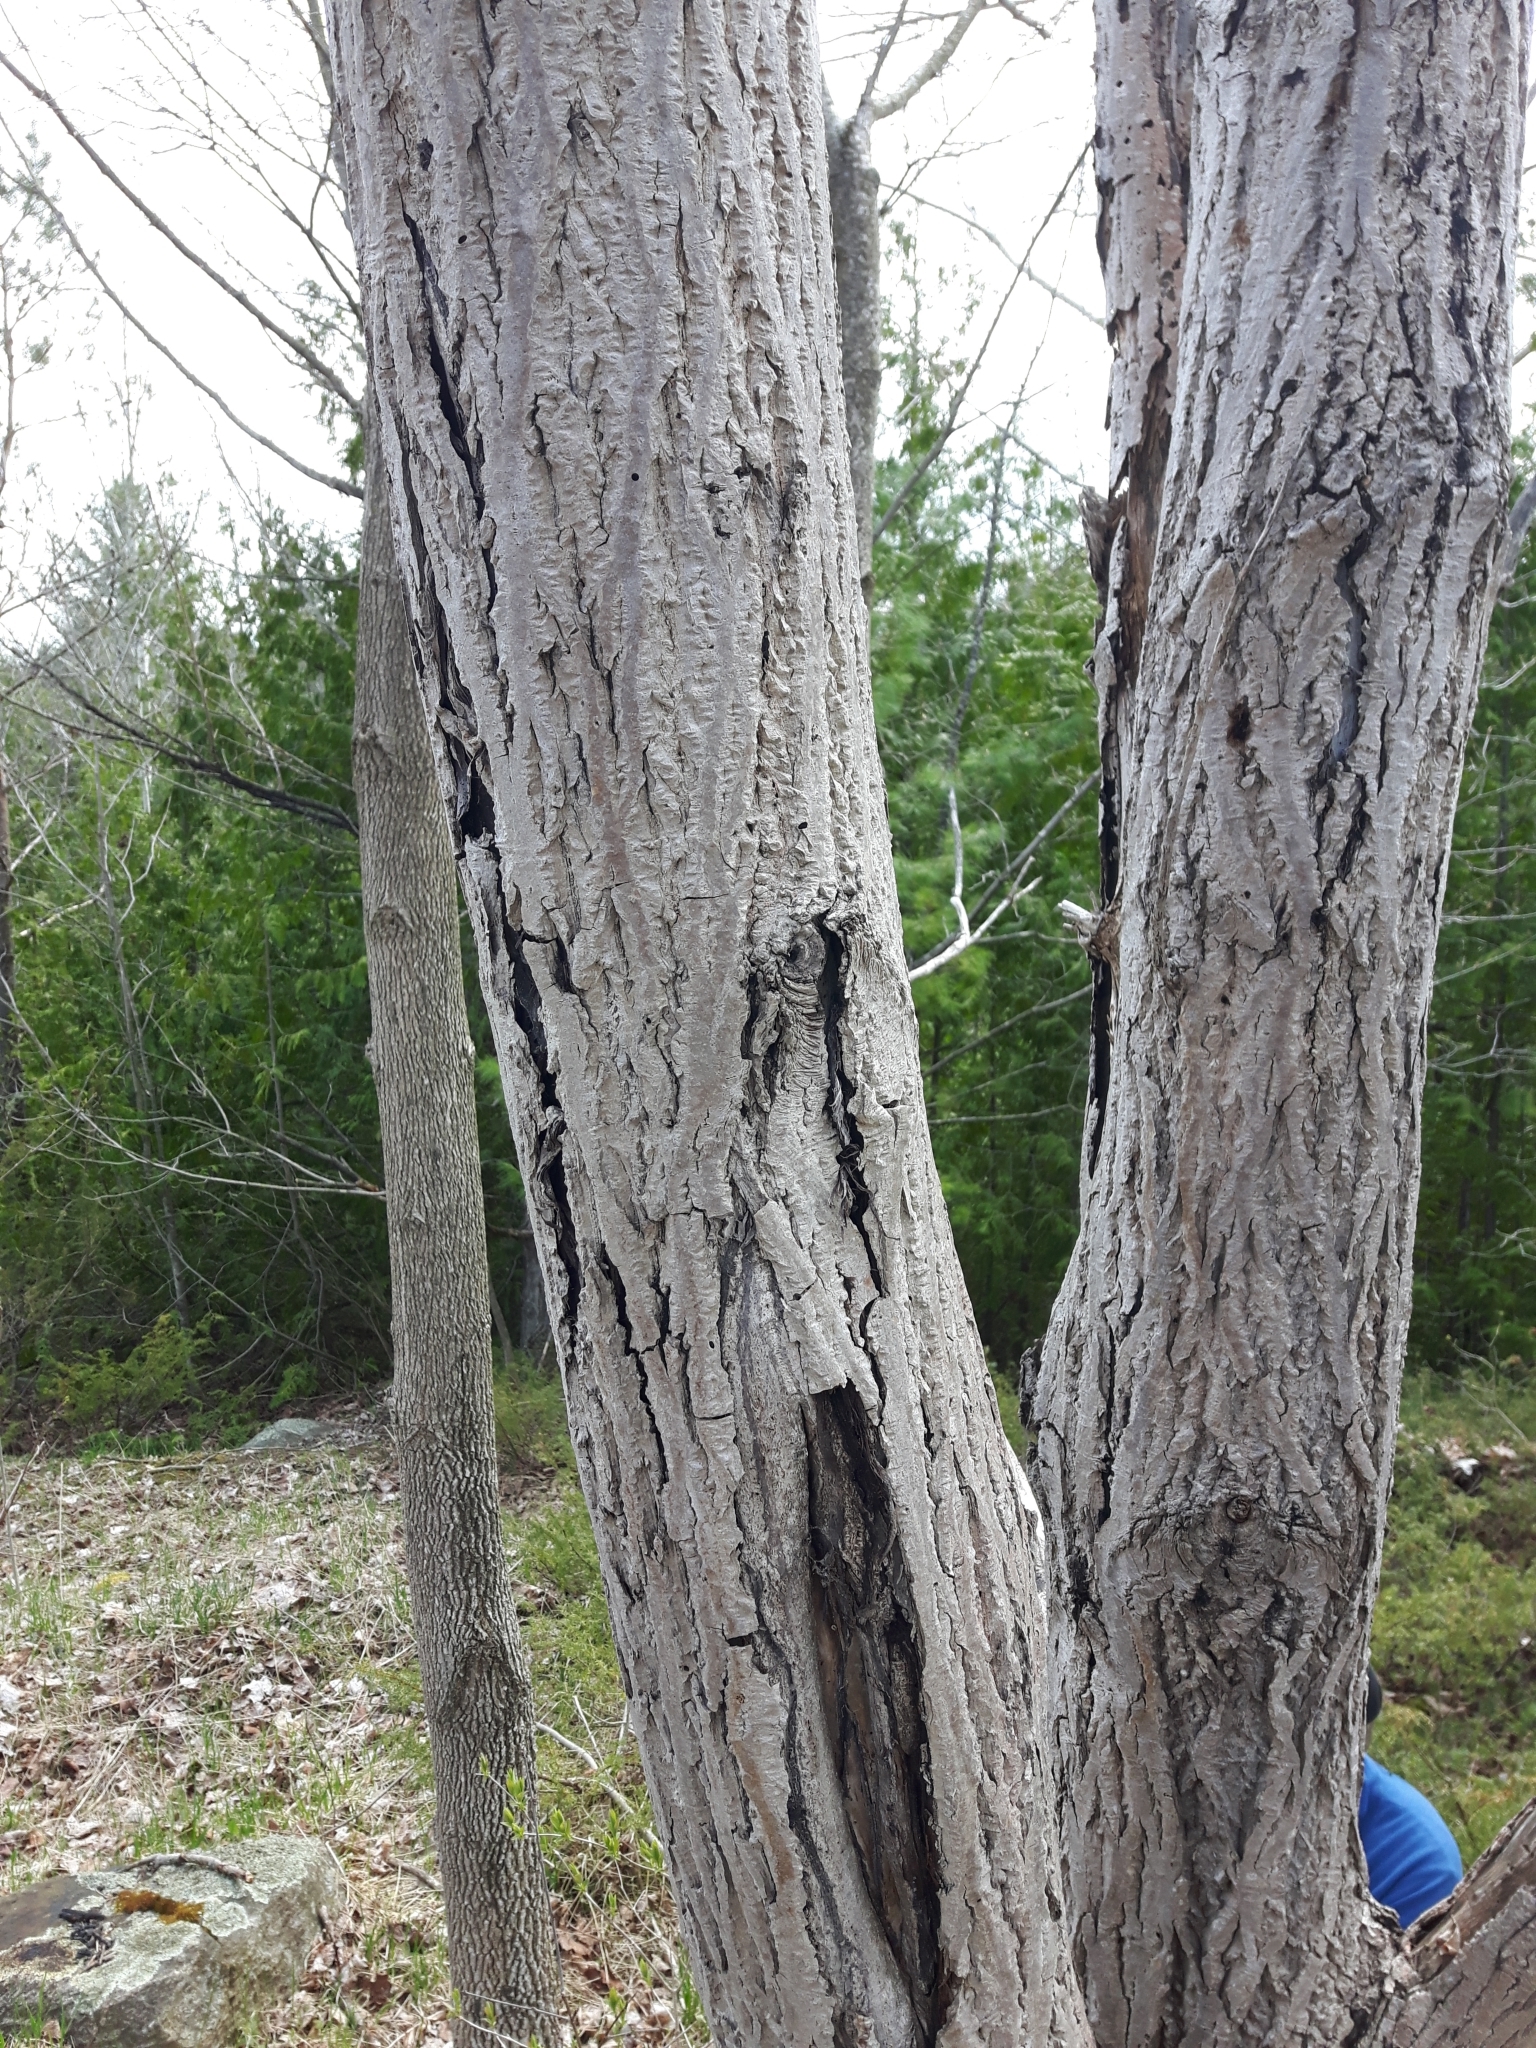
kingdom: Plantae
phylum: Tracheophyta
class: Magnoliopsida
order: Fagales
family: Juglandaceae
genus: Juglans
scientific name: Juglans cinerea
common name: Butternut
